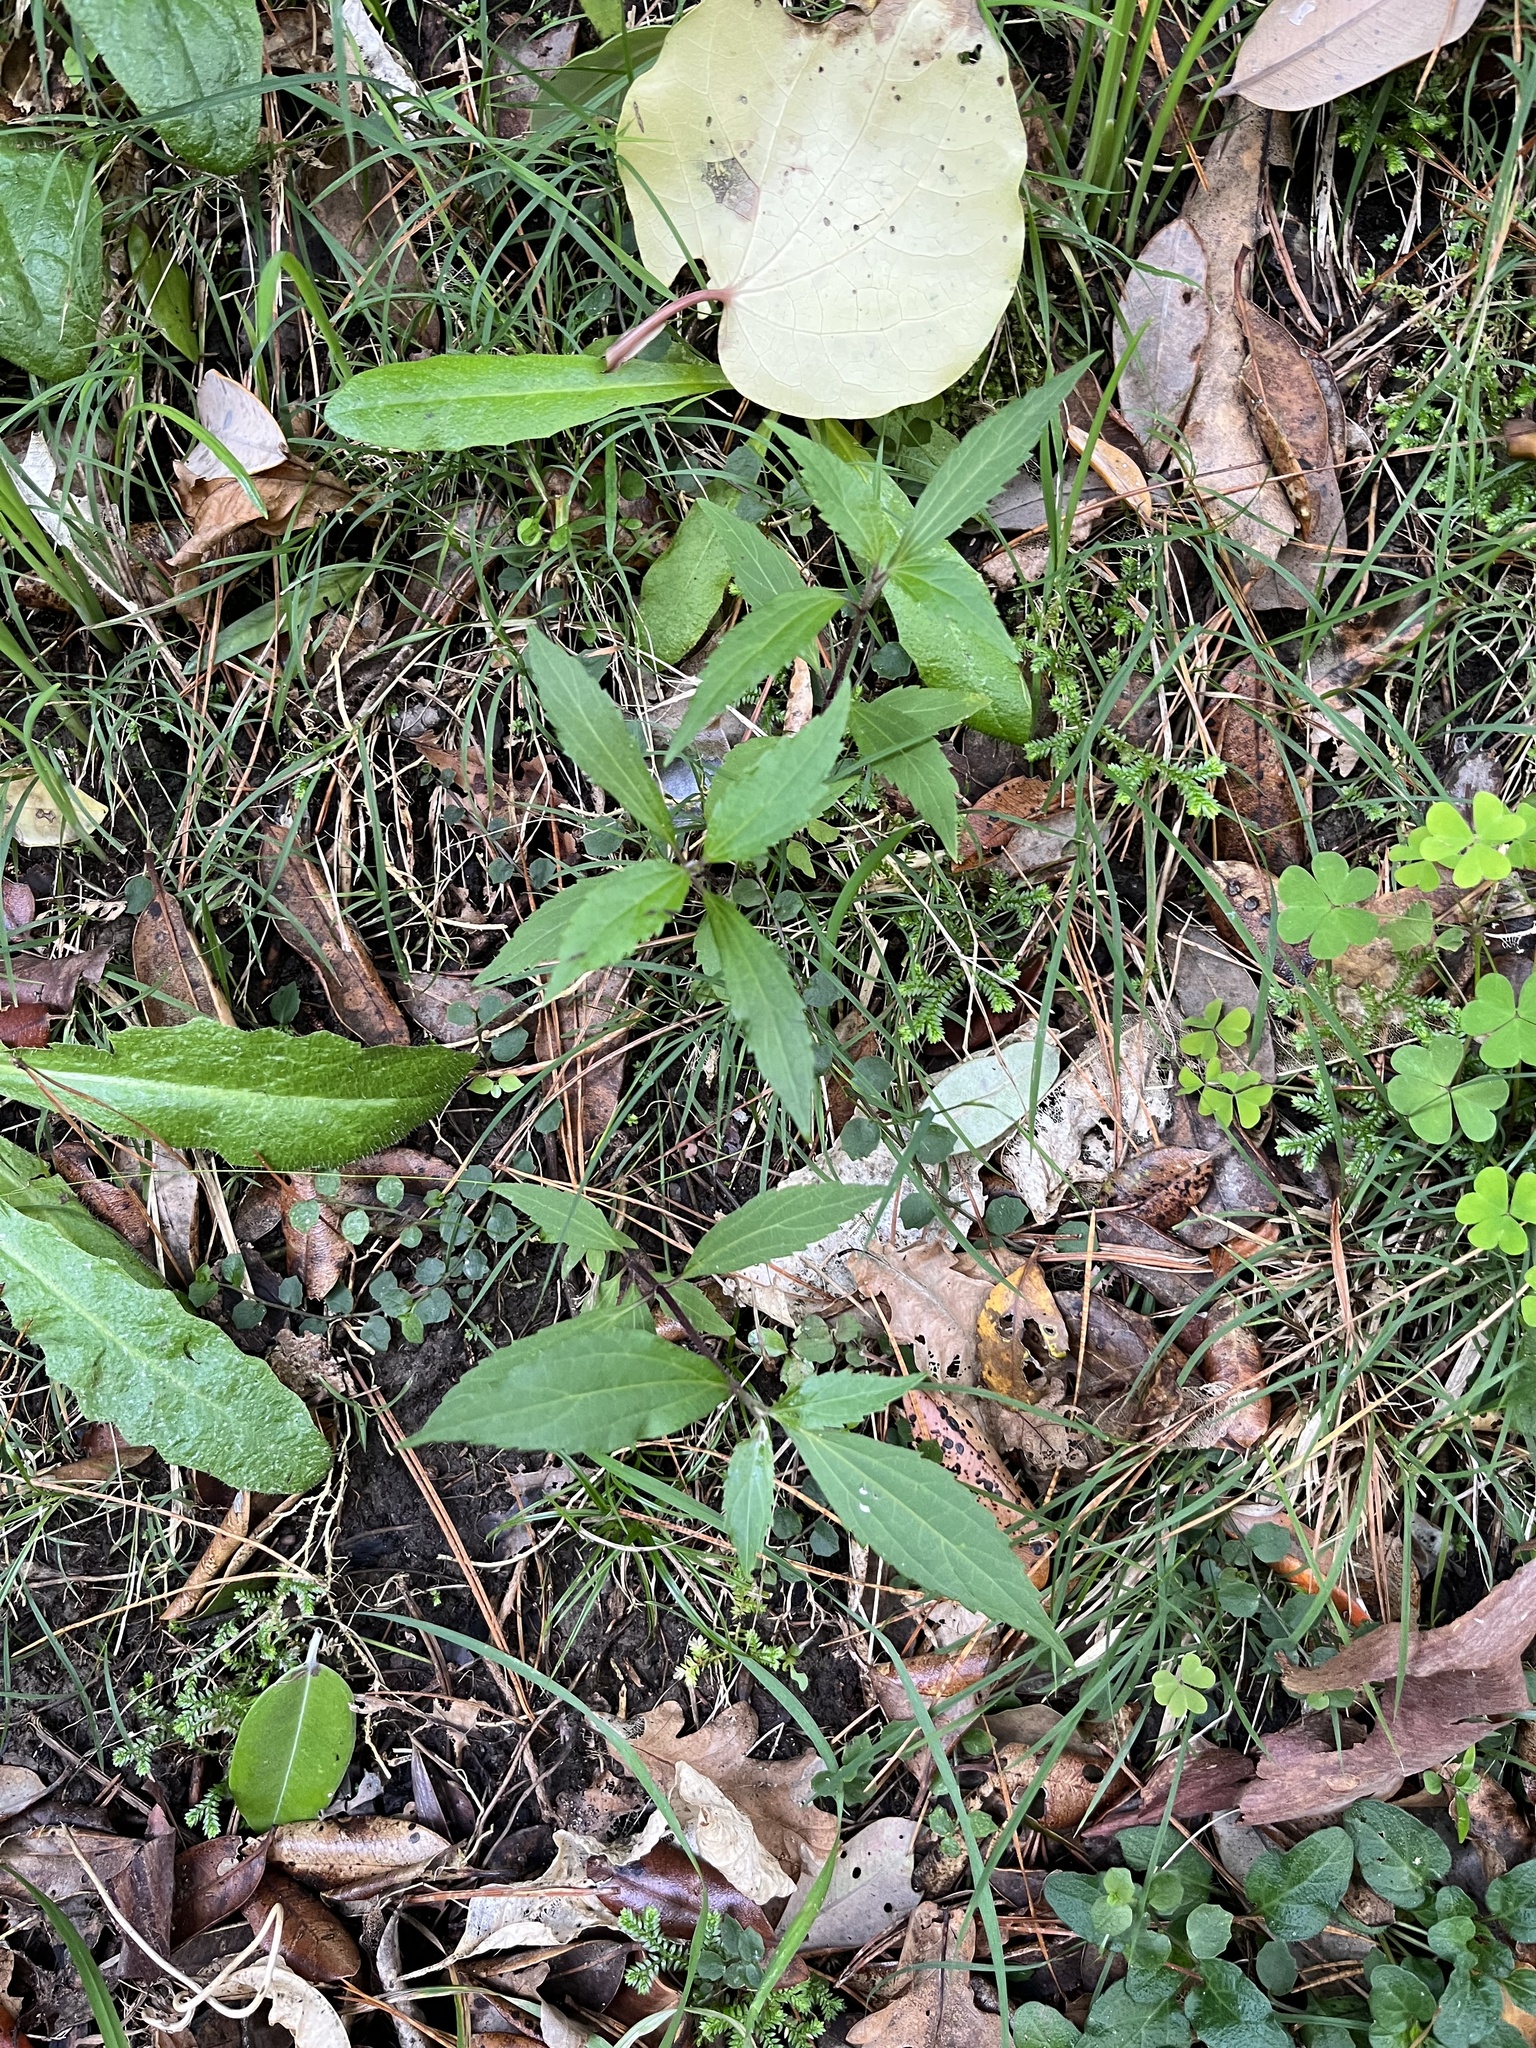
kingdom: Plantae
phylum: Tracheophyta
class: Magnoliopsida
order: Asterales
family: Asteraceae
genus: Ageratina
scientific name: Ageratina riparia
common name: Creeping croftonweed
